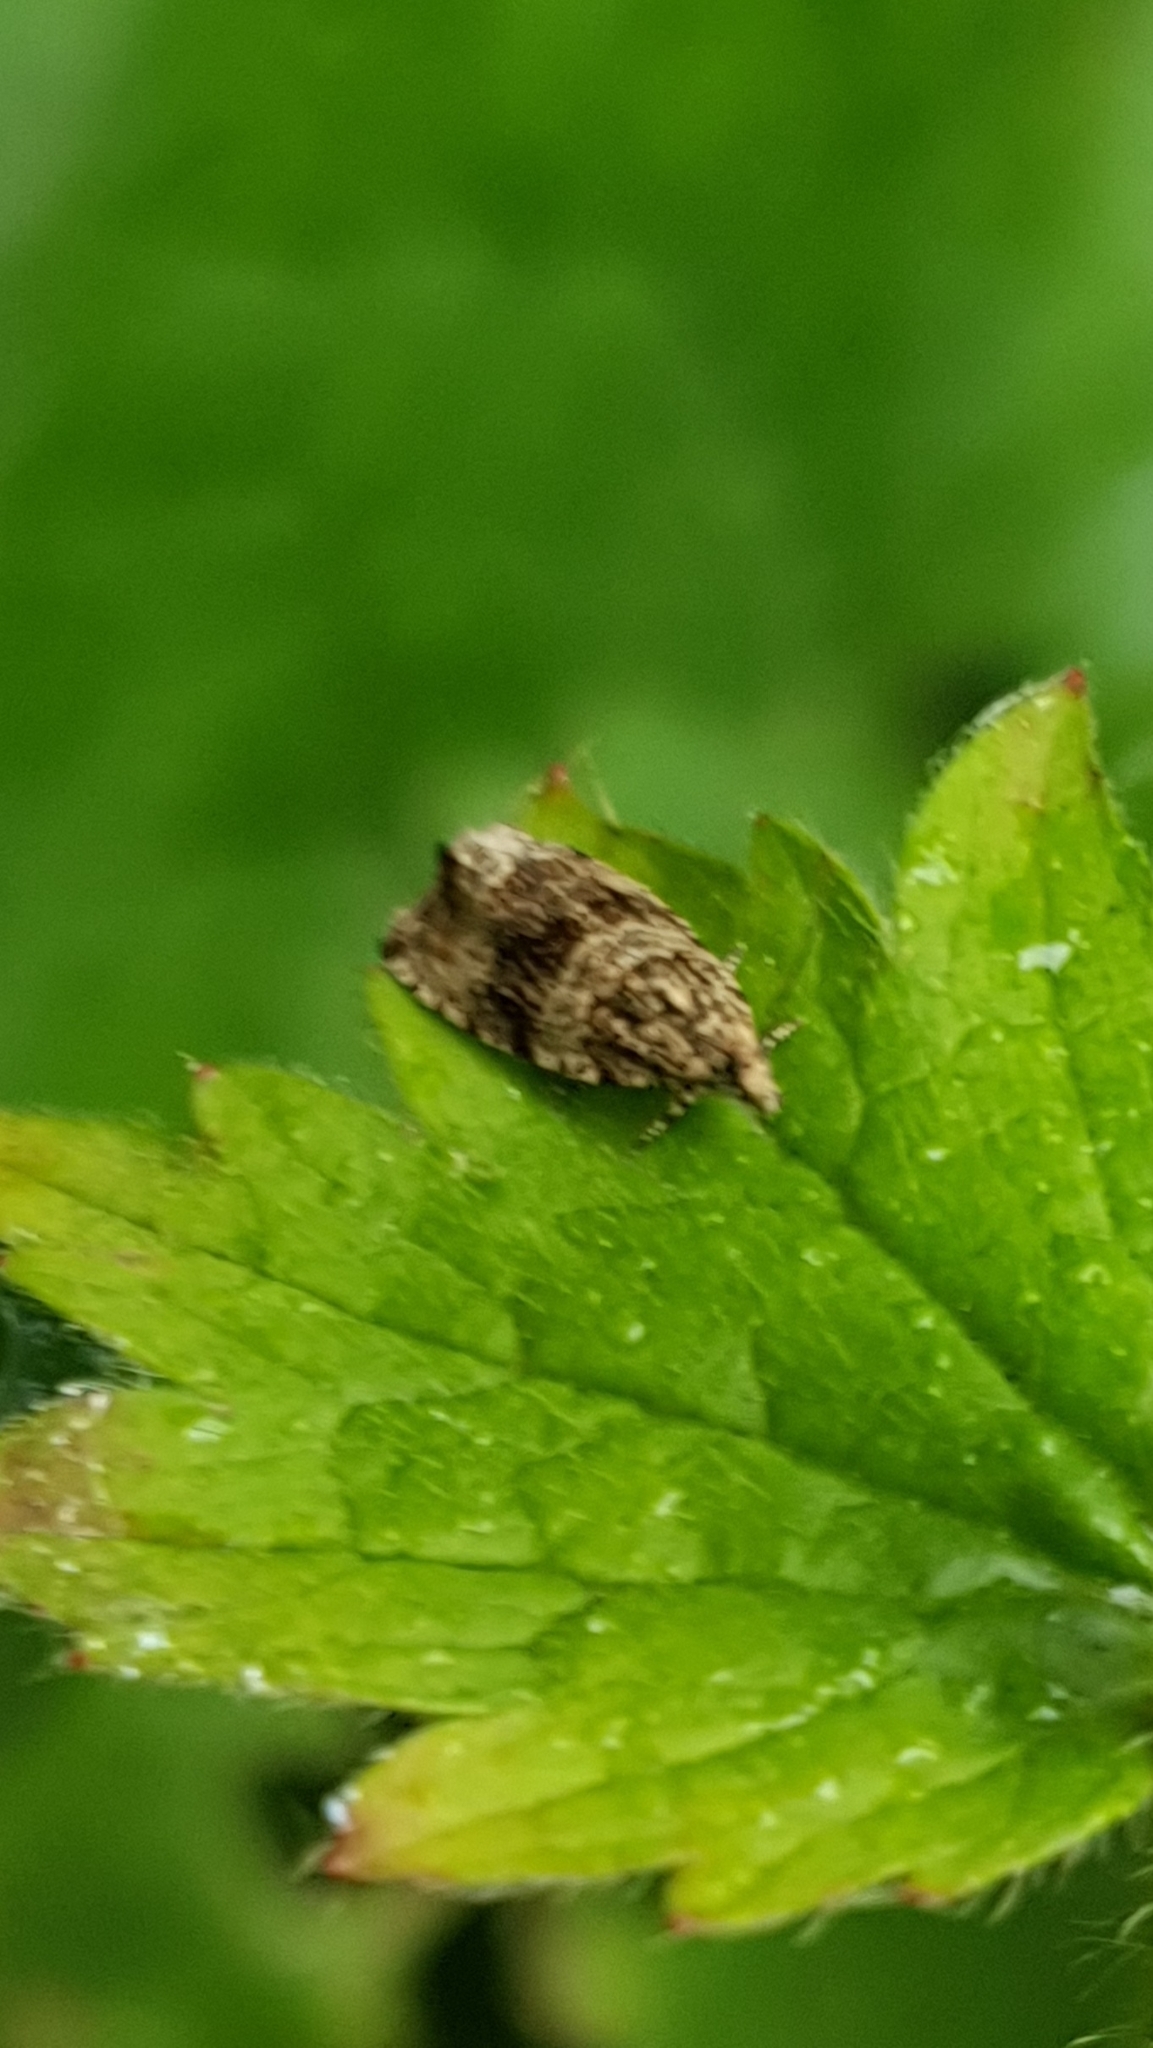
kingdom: Animalia
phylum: Arthropoda
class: Insecta
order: Lepidoptera
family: Tortricidae
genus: Syricoris
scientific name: Syricoris lacunana
